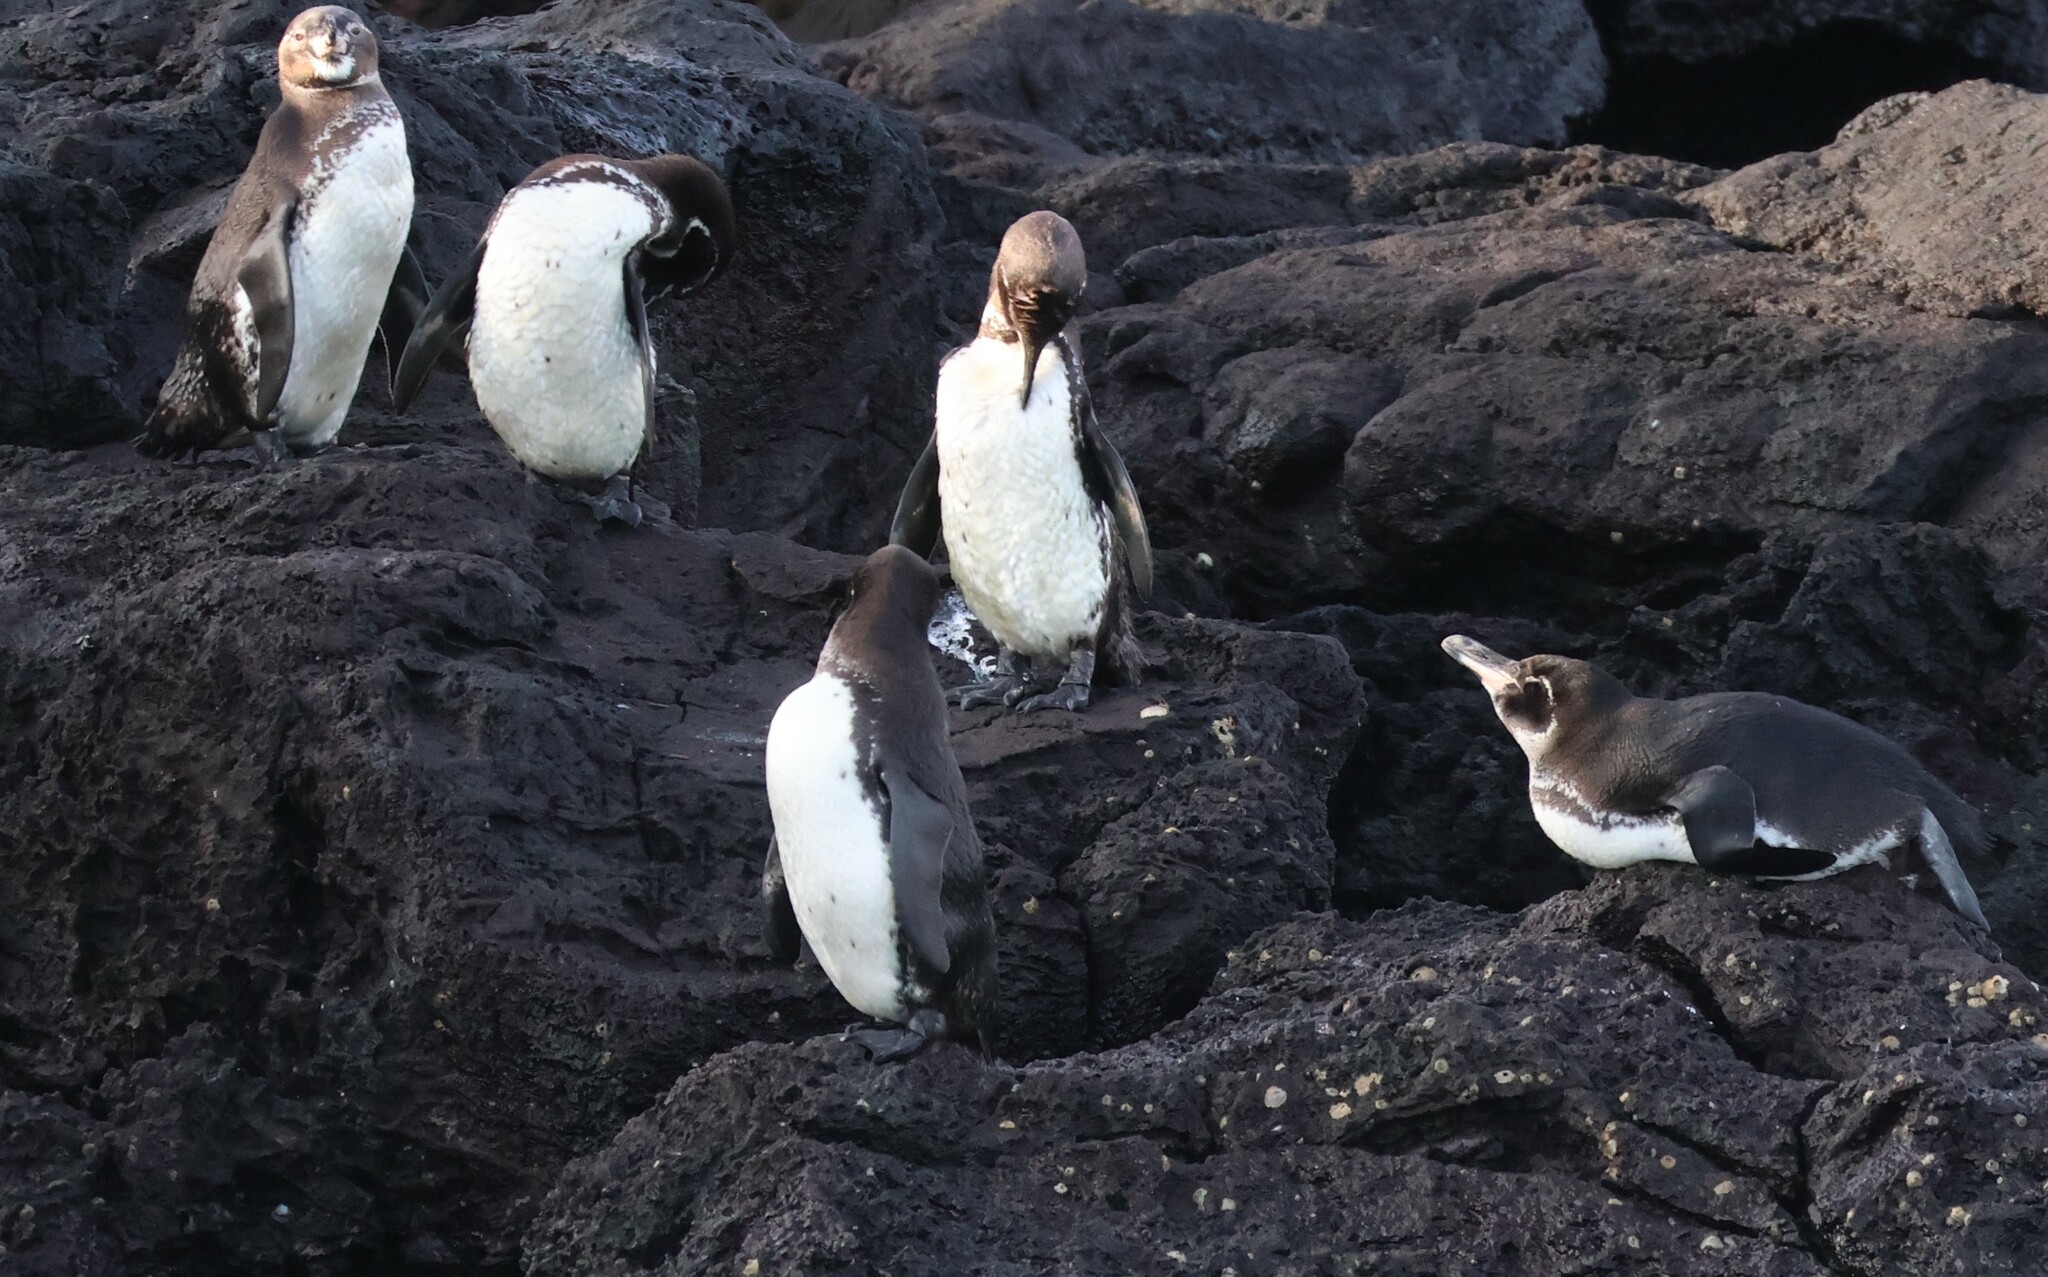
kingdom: Animalia
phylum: Chordata
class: Aves
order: Sphenisciformes
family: Spheniscidae
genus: Spheniscus
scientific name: Spheniscus mendiculus
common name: Galapagos penguin
